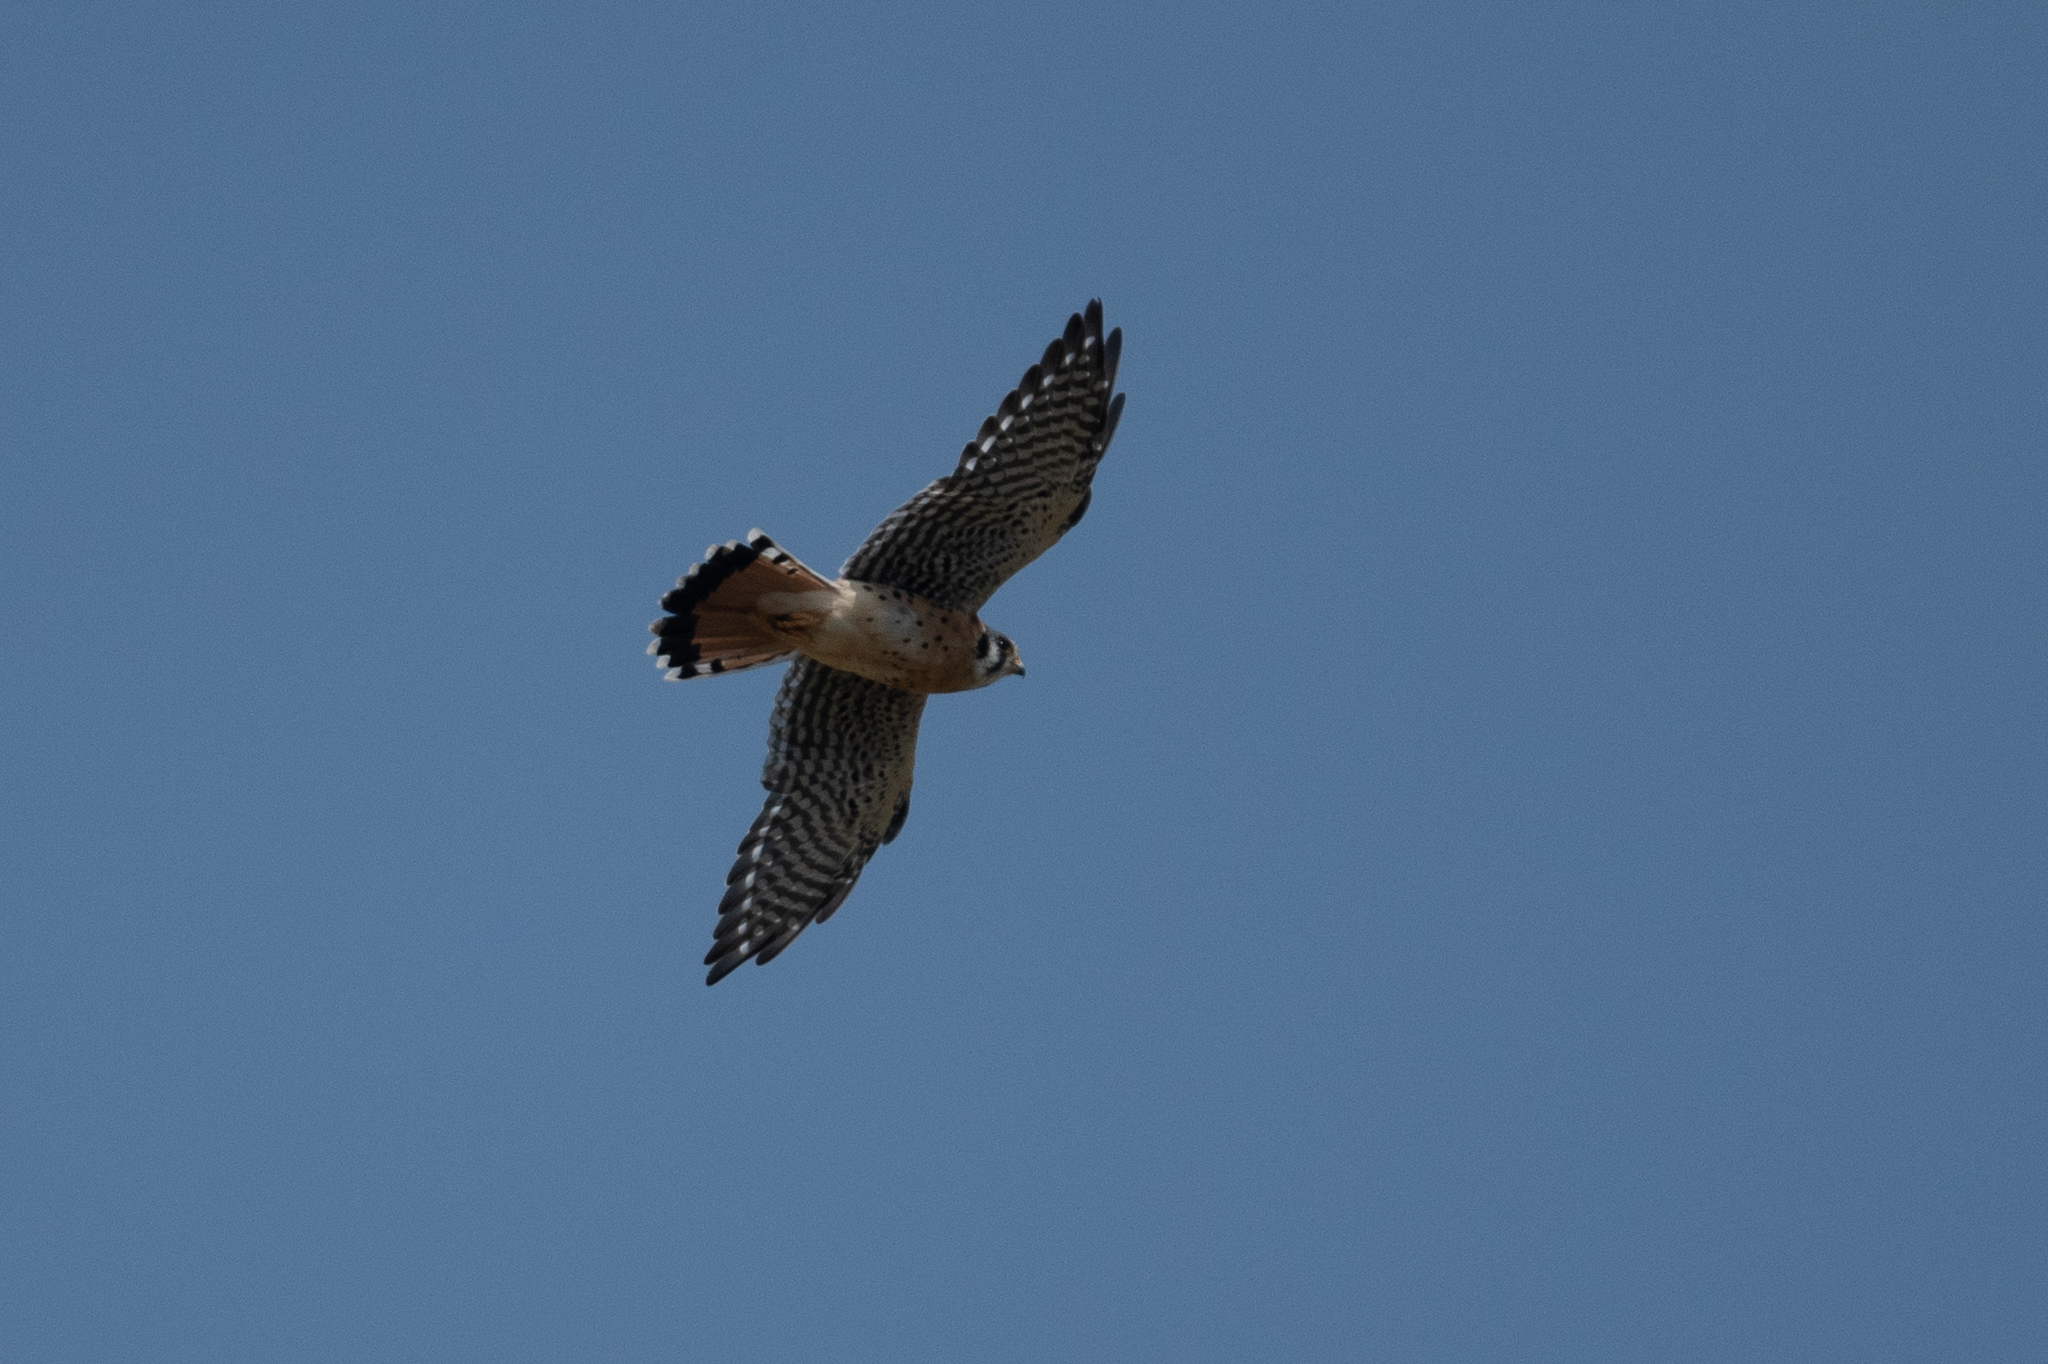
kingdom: Animalia
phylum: Chordata
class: Aves
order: Falconiformes
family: Falconidae
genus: Falco
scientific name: Falco sparverius
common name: American kestrel
